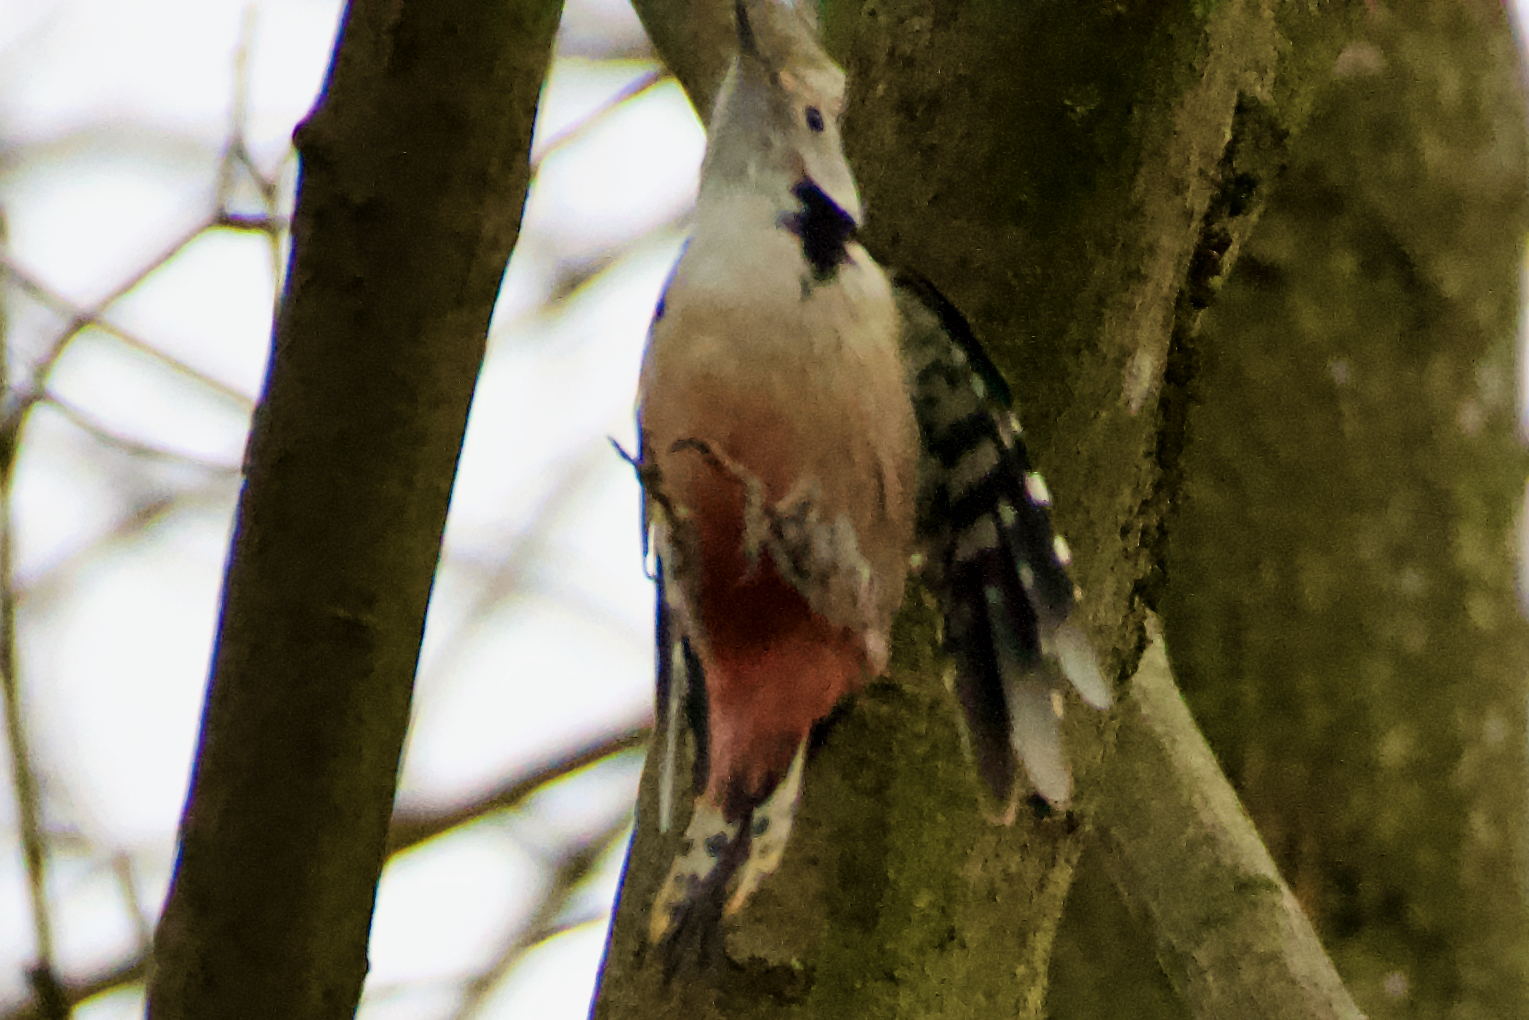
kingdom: Animalia
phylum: Chordata
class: Aves
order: Piciformes
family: Picidae
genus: Dendrocoptes
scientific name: Dendrocoptes medius
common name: Middle spotted woodpecker
